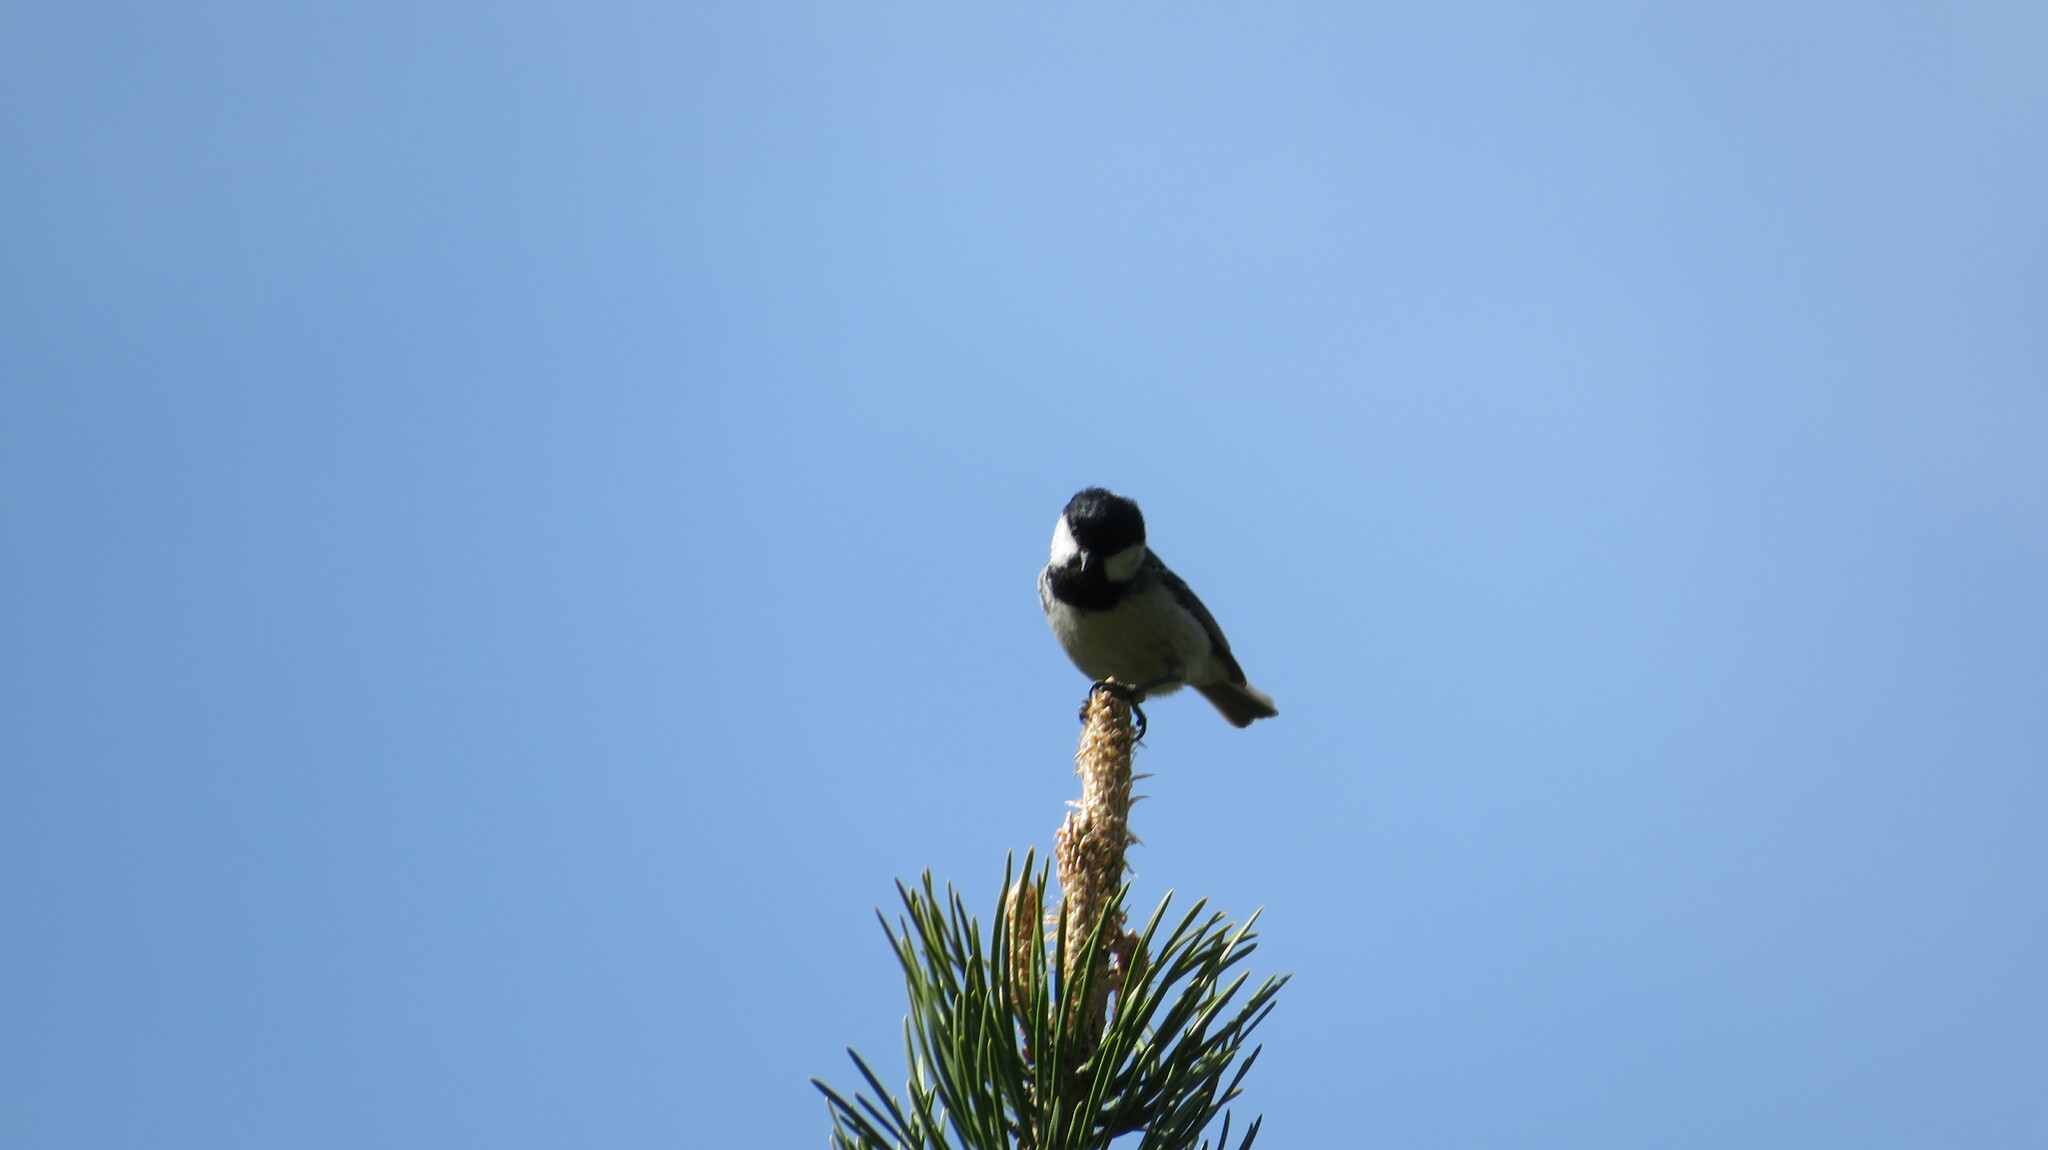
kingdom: Animalia
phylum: Chordata
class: Aves
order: Passeriformes
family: Paridae
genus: Periparus
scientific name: Periparus ater
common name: Coal tit
